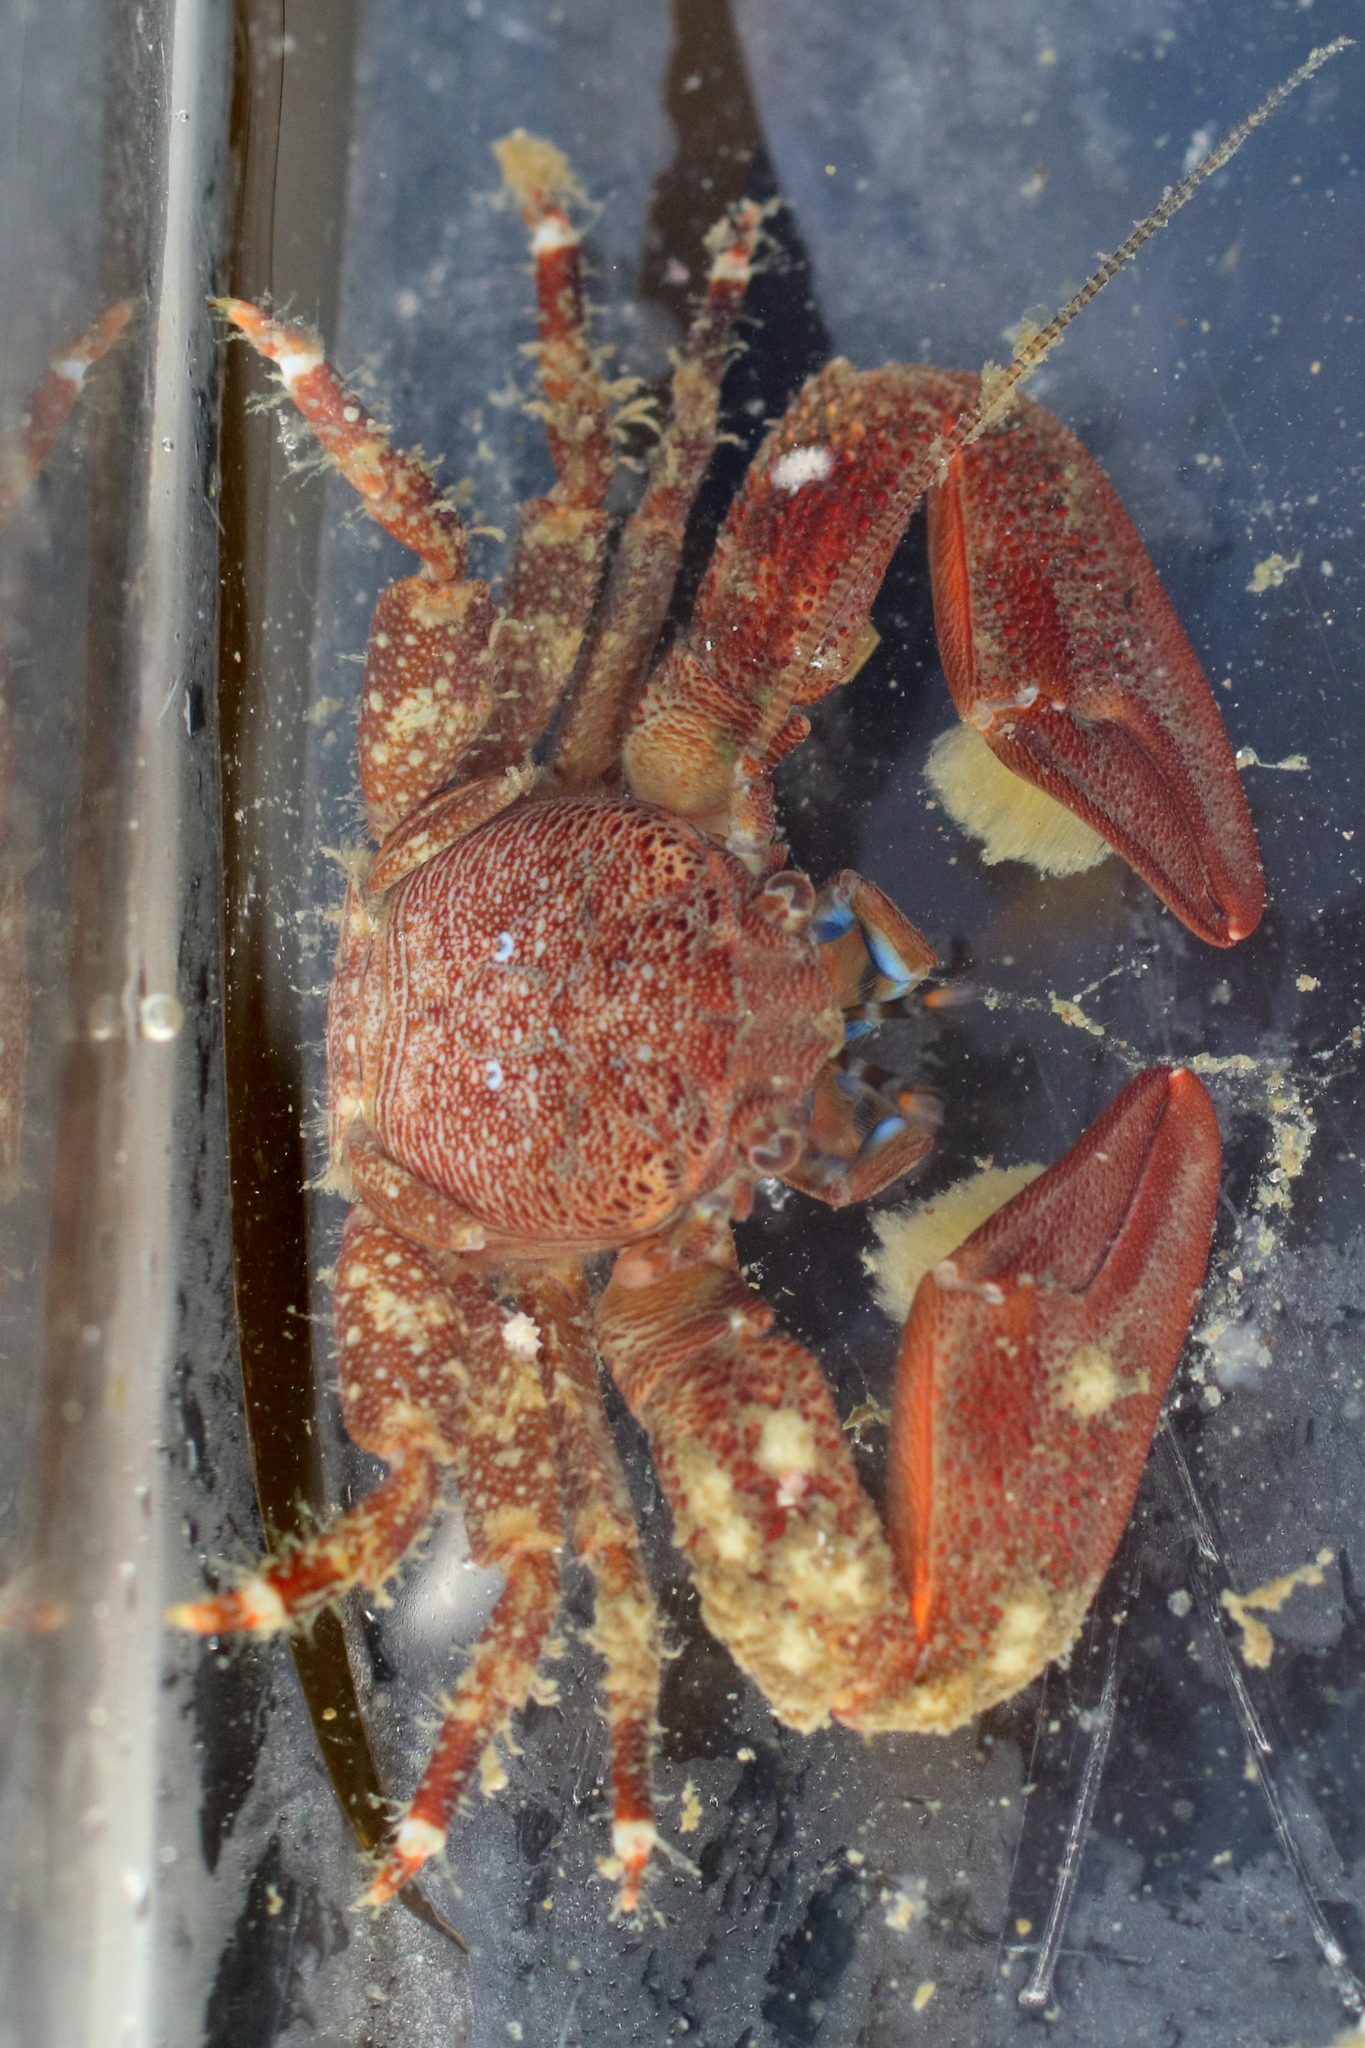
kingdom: Animalia
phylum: Arthropoda
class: Malacostraca
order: Decapoda
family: Porcellanidae
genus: Petrolisthes
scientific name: Petrolisthes eriomerus
